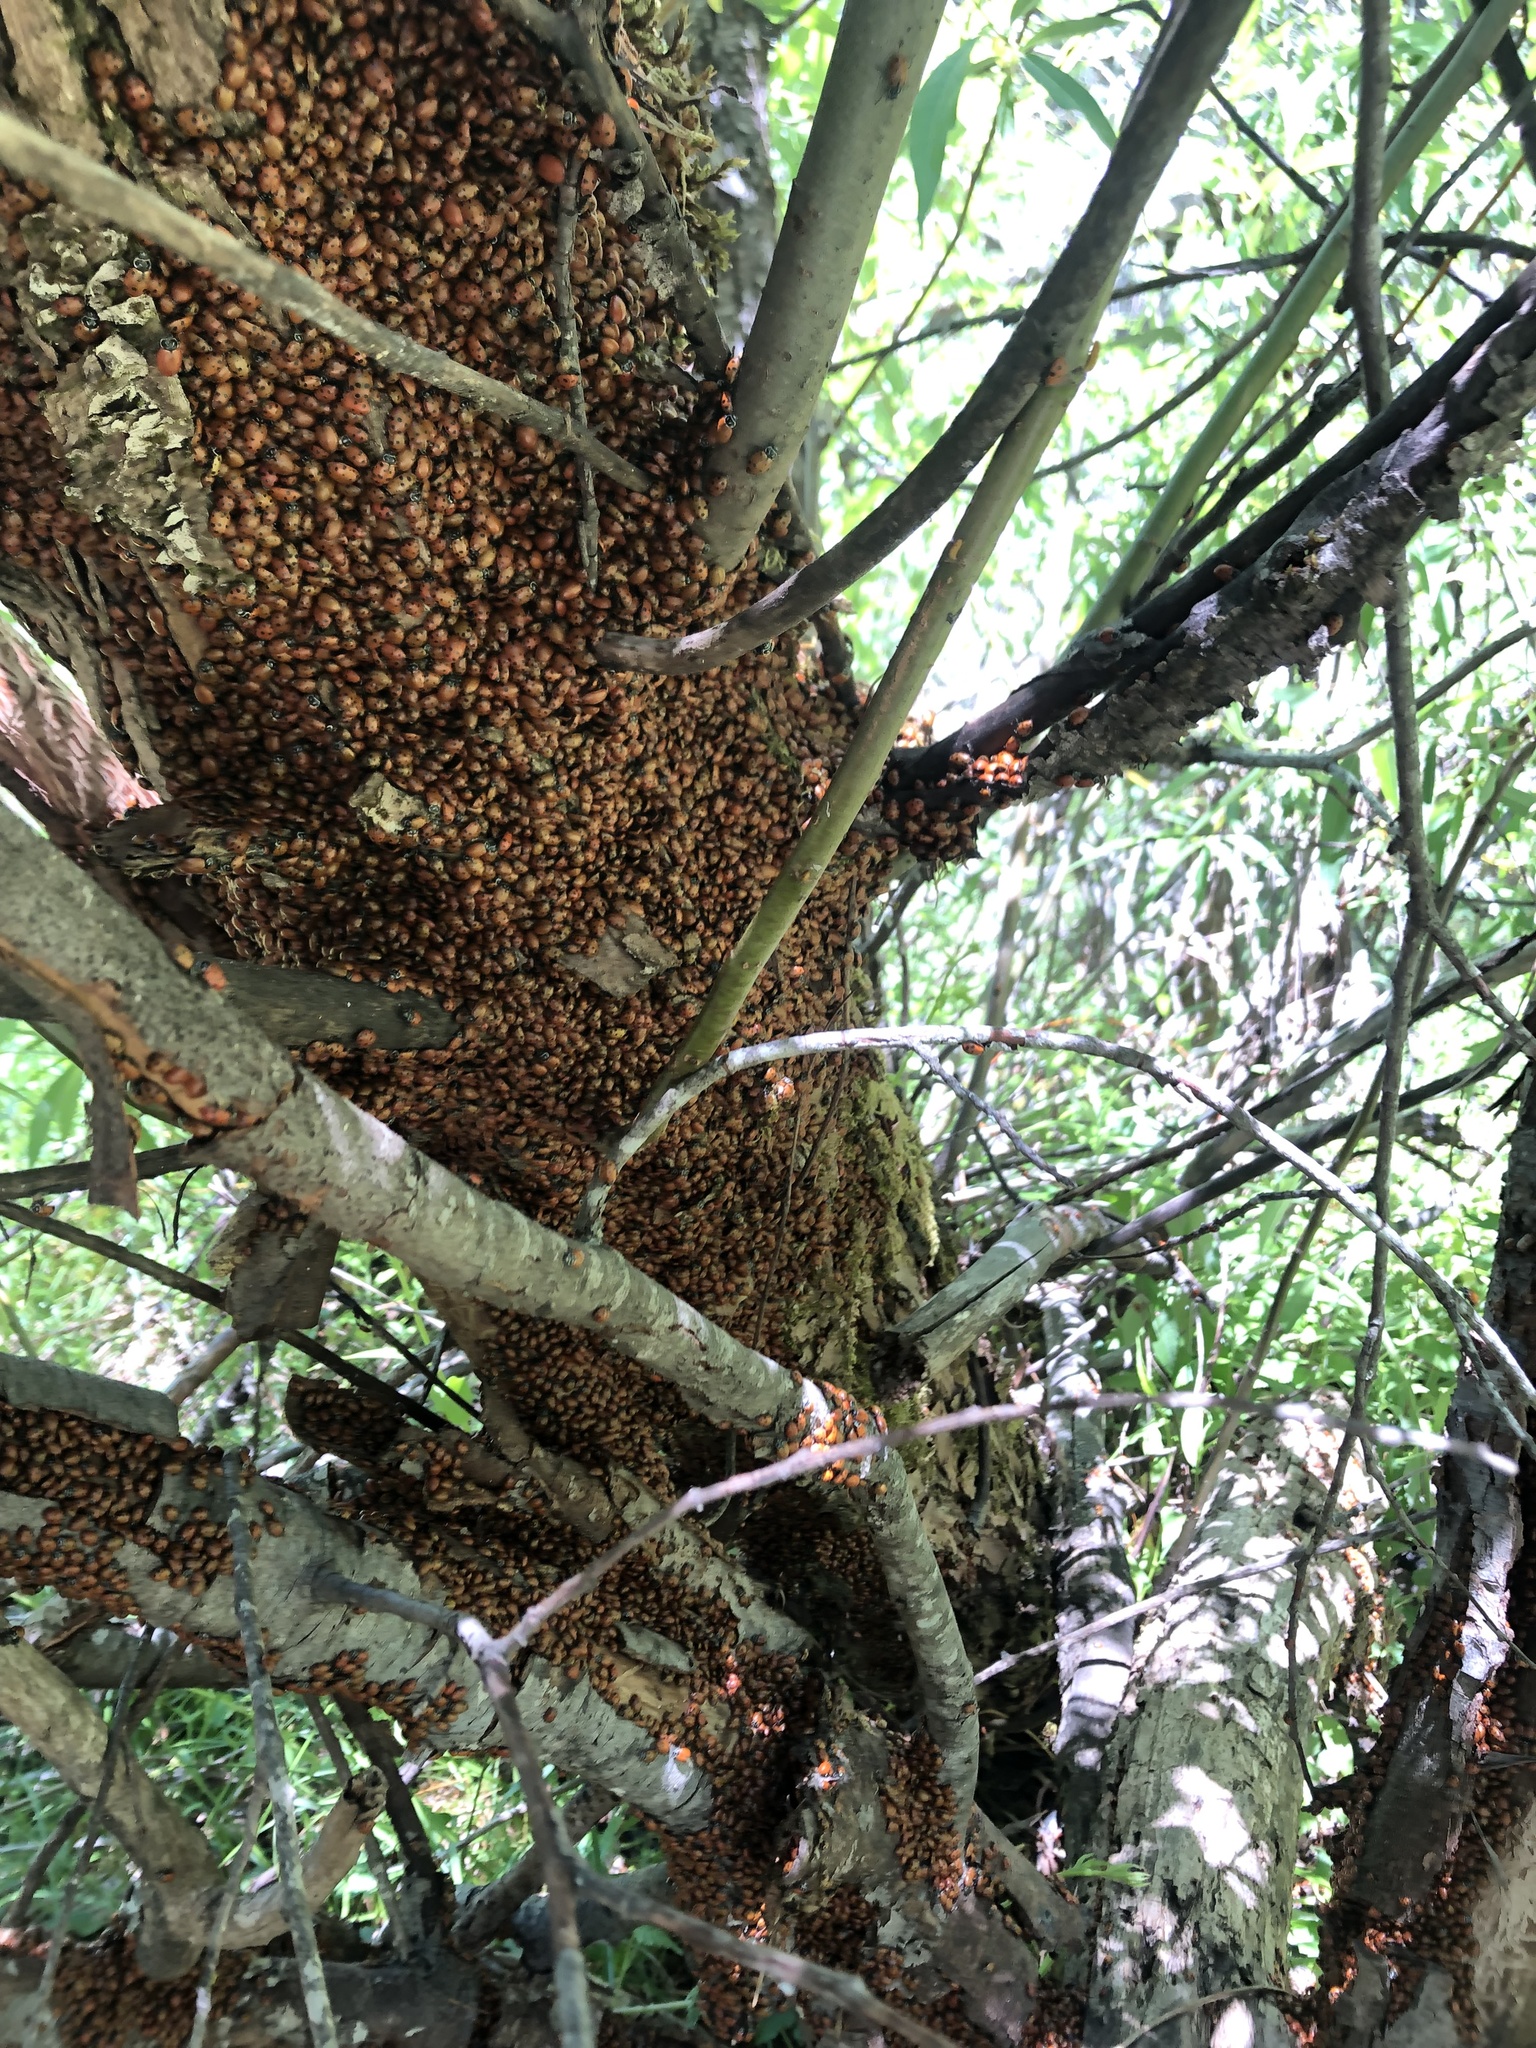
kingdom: Animalia
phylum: Arthropoda
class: Insecta
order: Coleoptera
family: Coccinellidae
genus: Hippodamia
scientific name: Hippodamia convergens
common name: Convergent lady beetle
